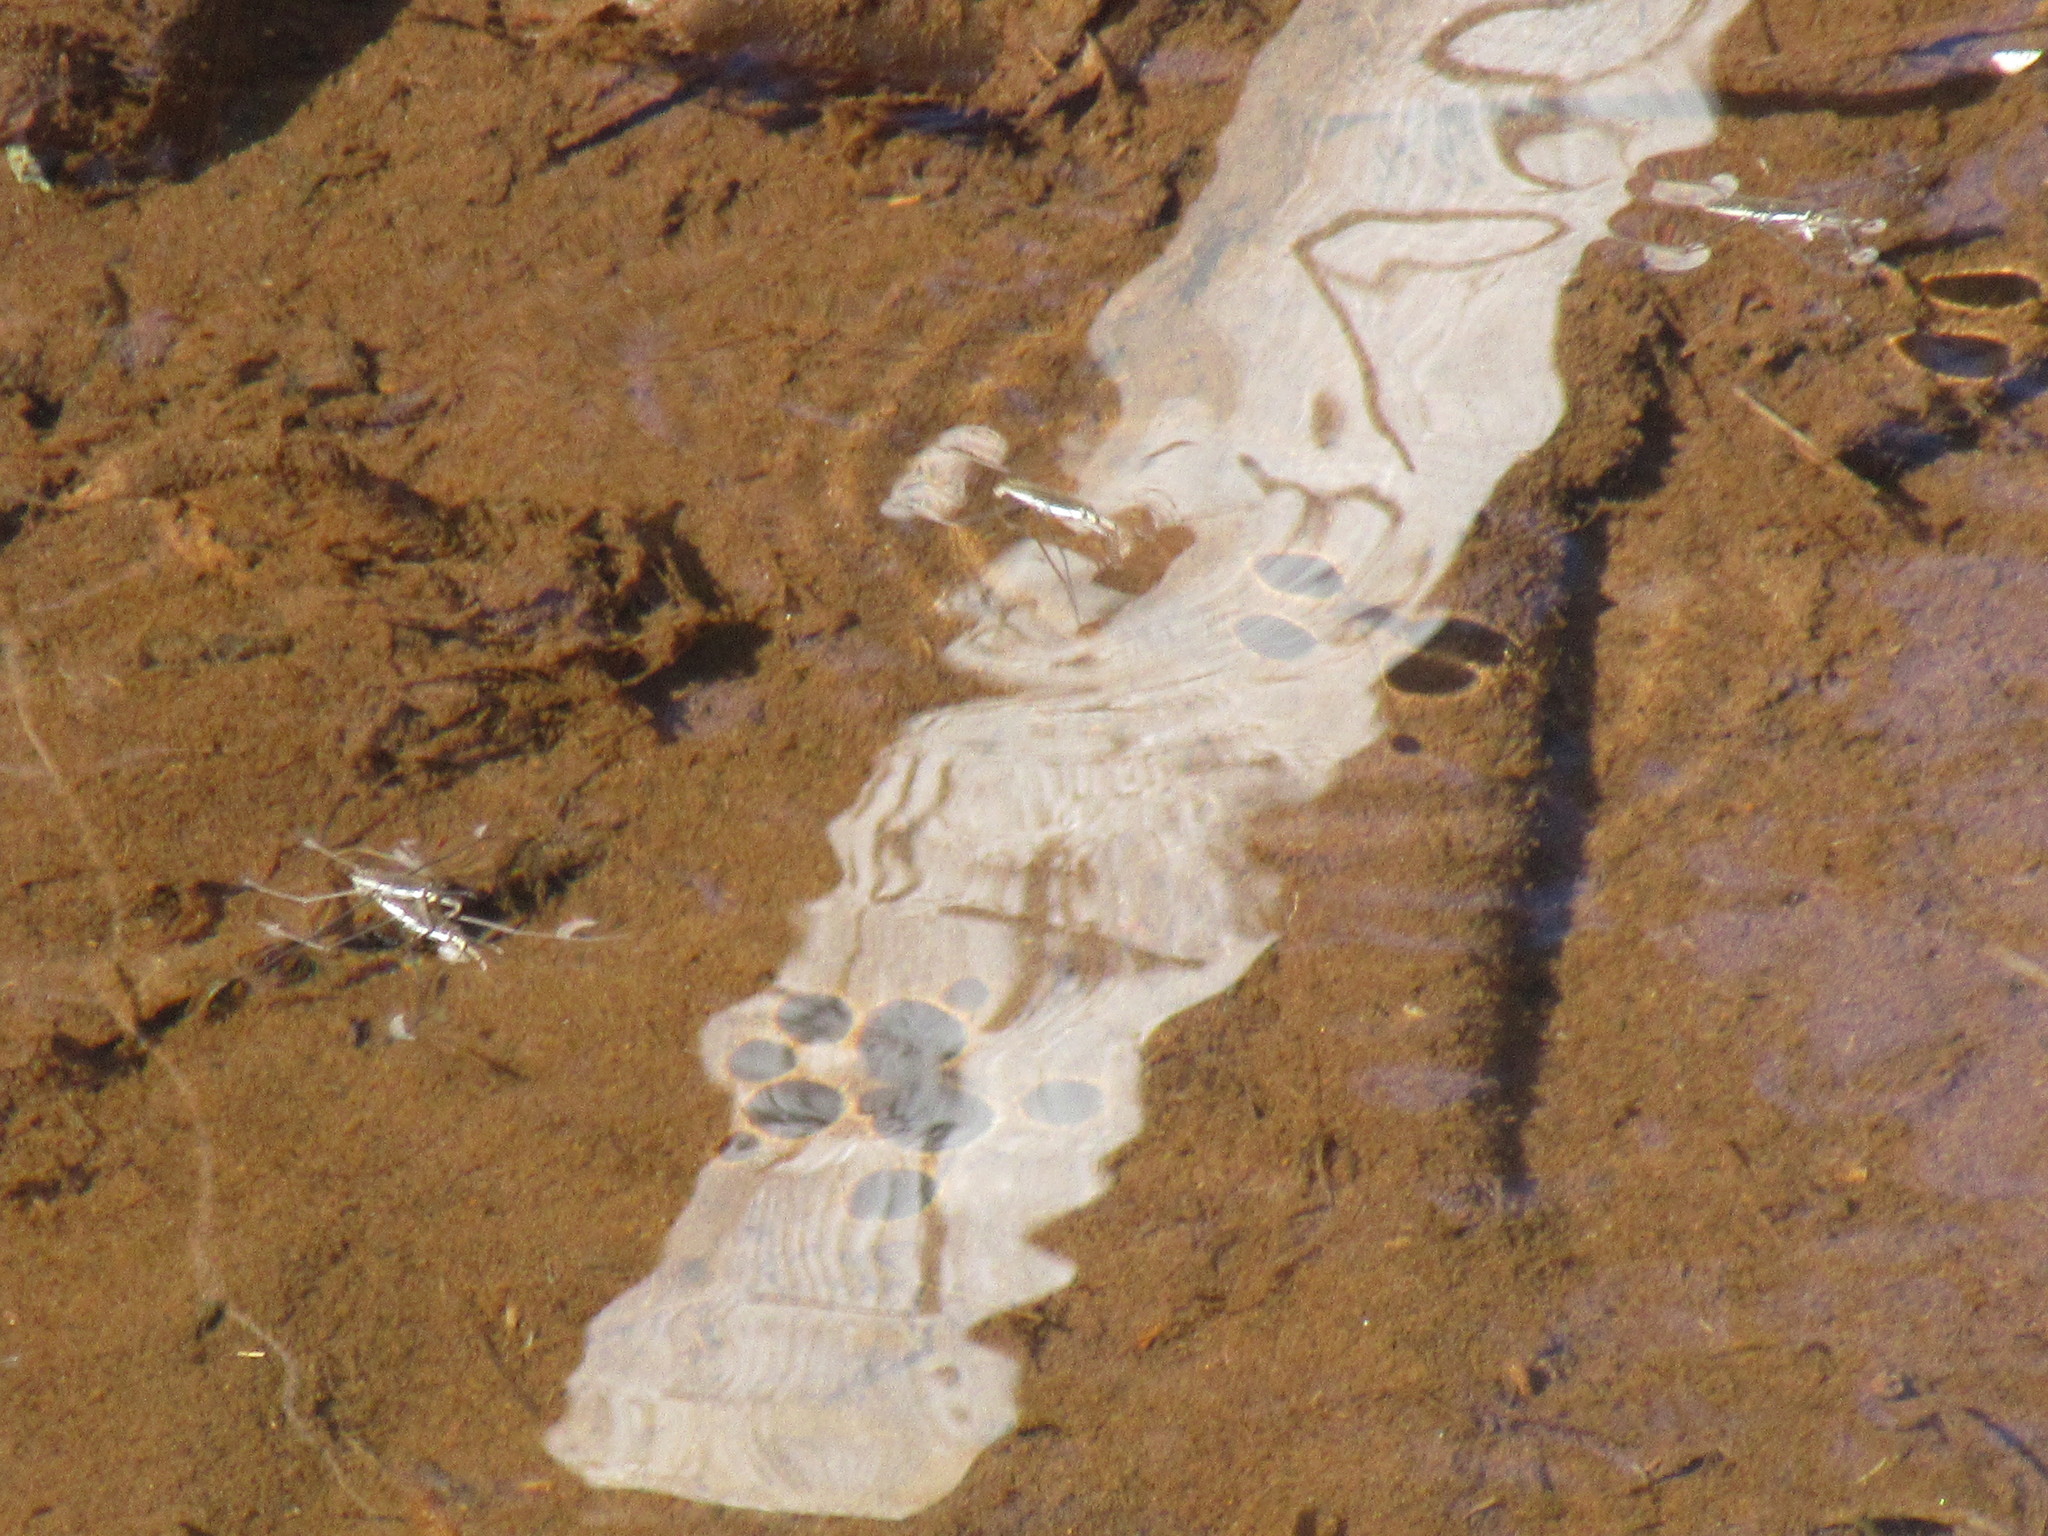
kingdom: Animalia
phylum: Arthropoda
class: Insecta
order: Hemiptera
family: Gerridae
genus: Aquarius
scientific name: Aquarius remigis
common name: Common water strider
